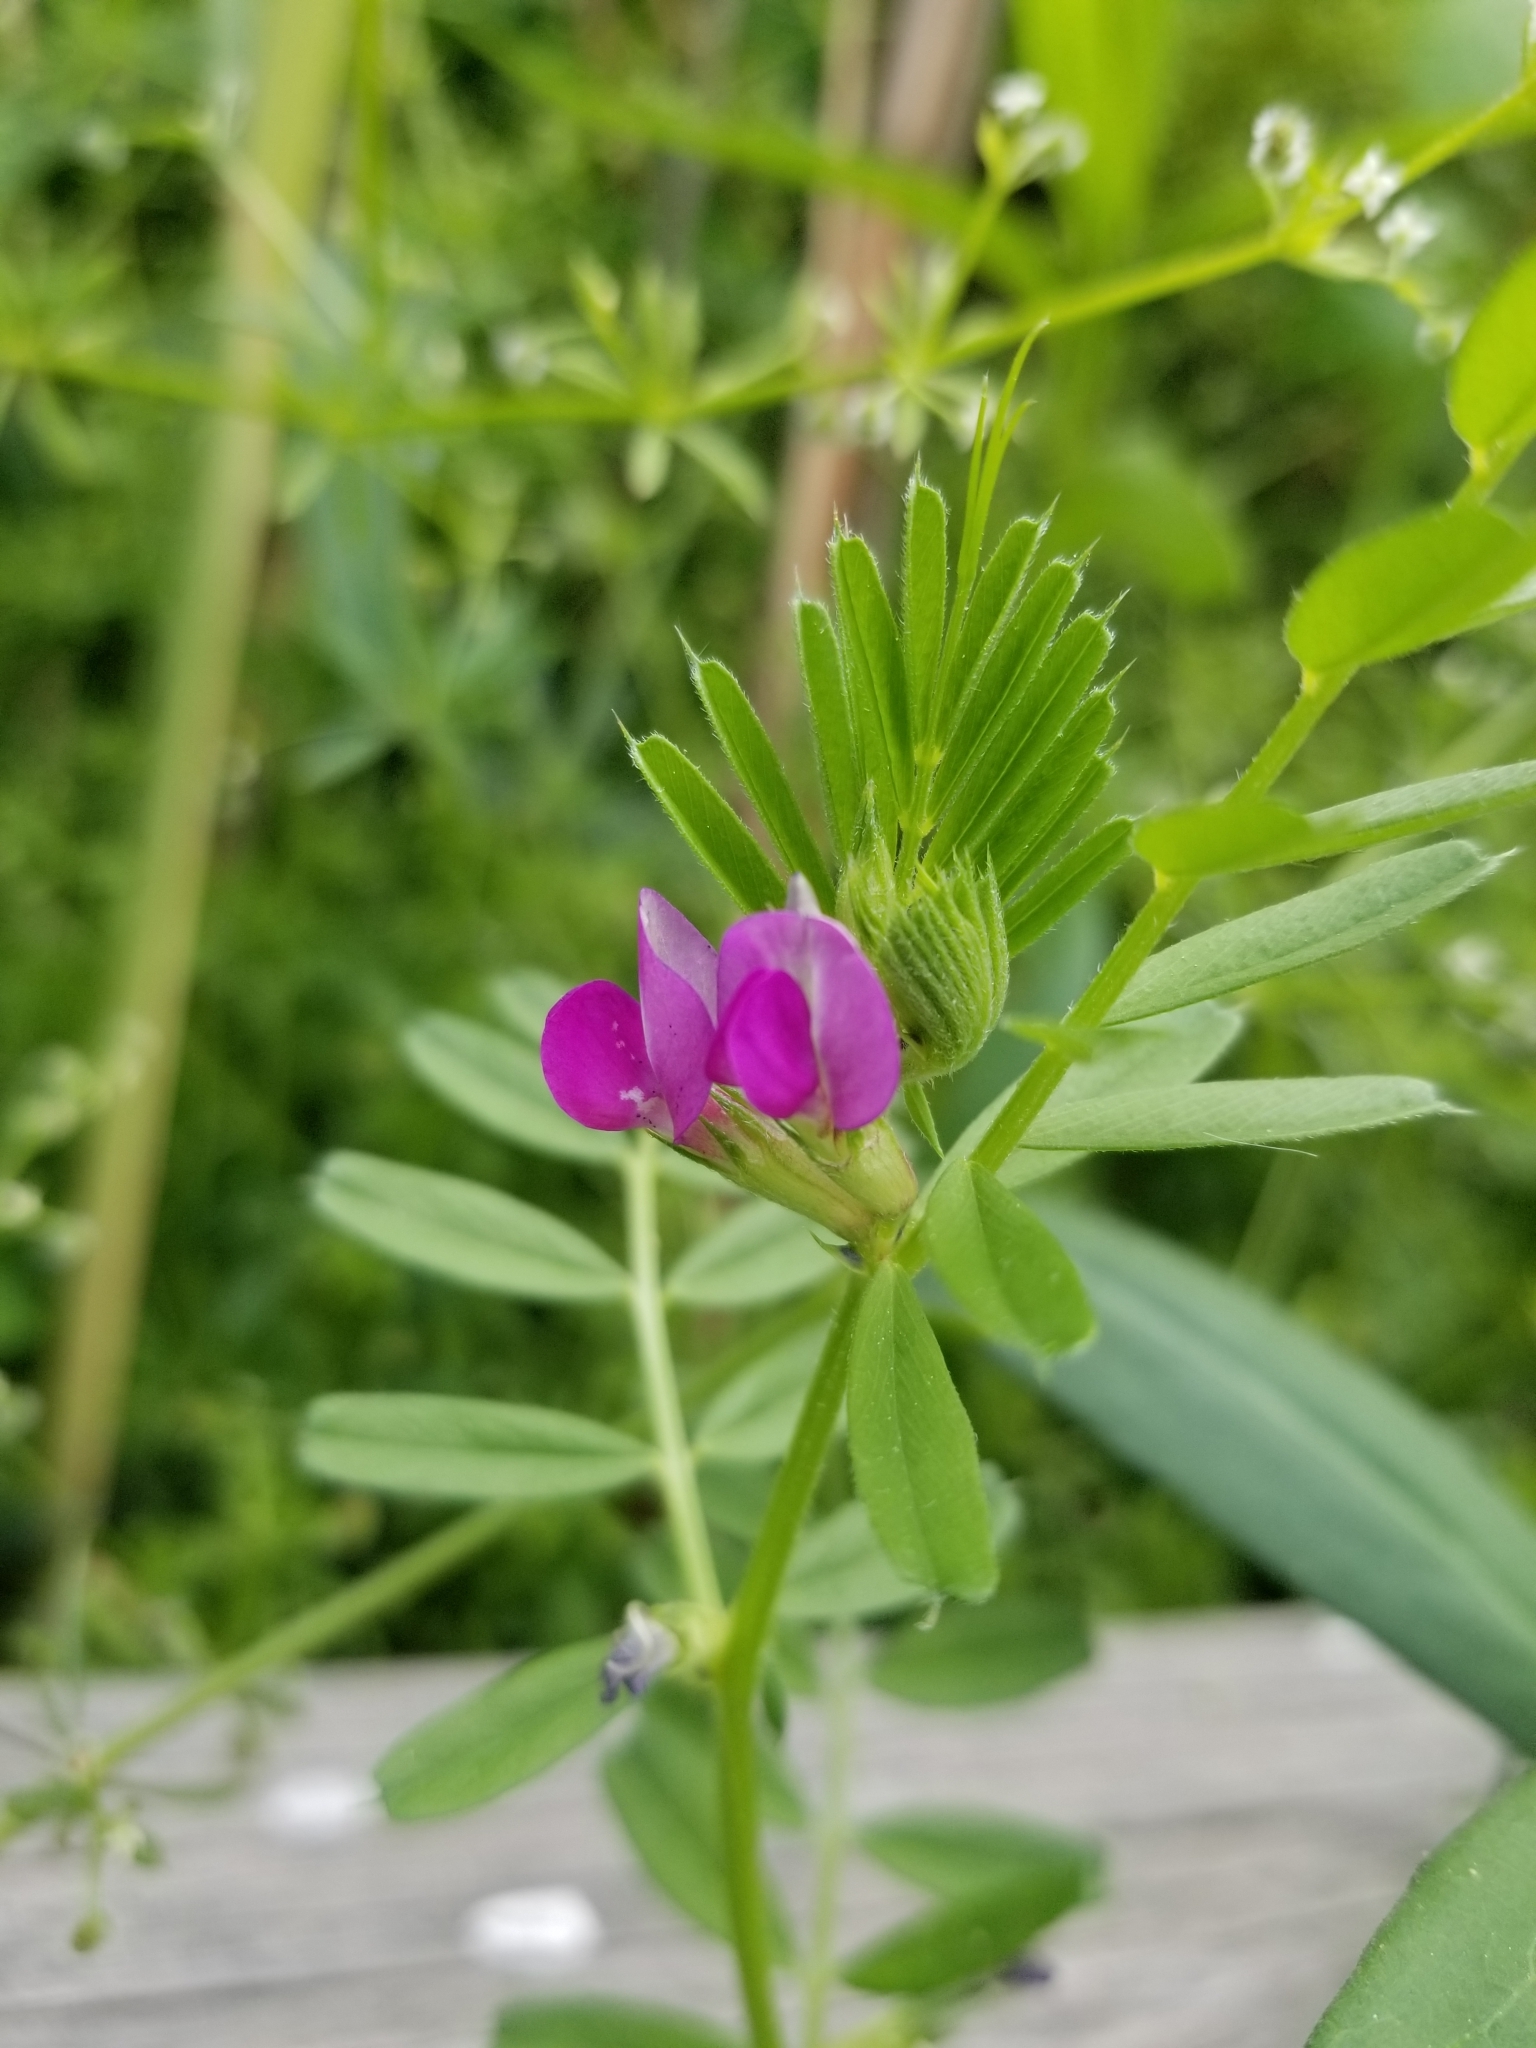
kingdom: Plantae
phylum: Tracheophyta
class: Magnoliopsida
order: Fabales
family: Fabaceae
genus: Vicia
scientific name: Vicia sativa
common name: Garden vetch
